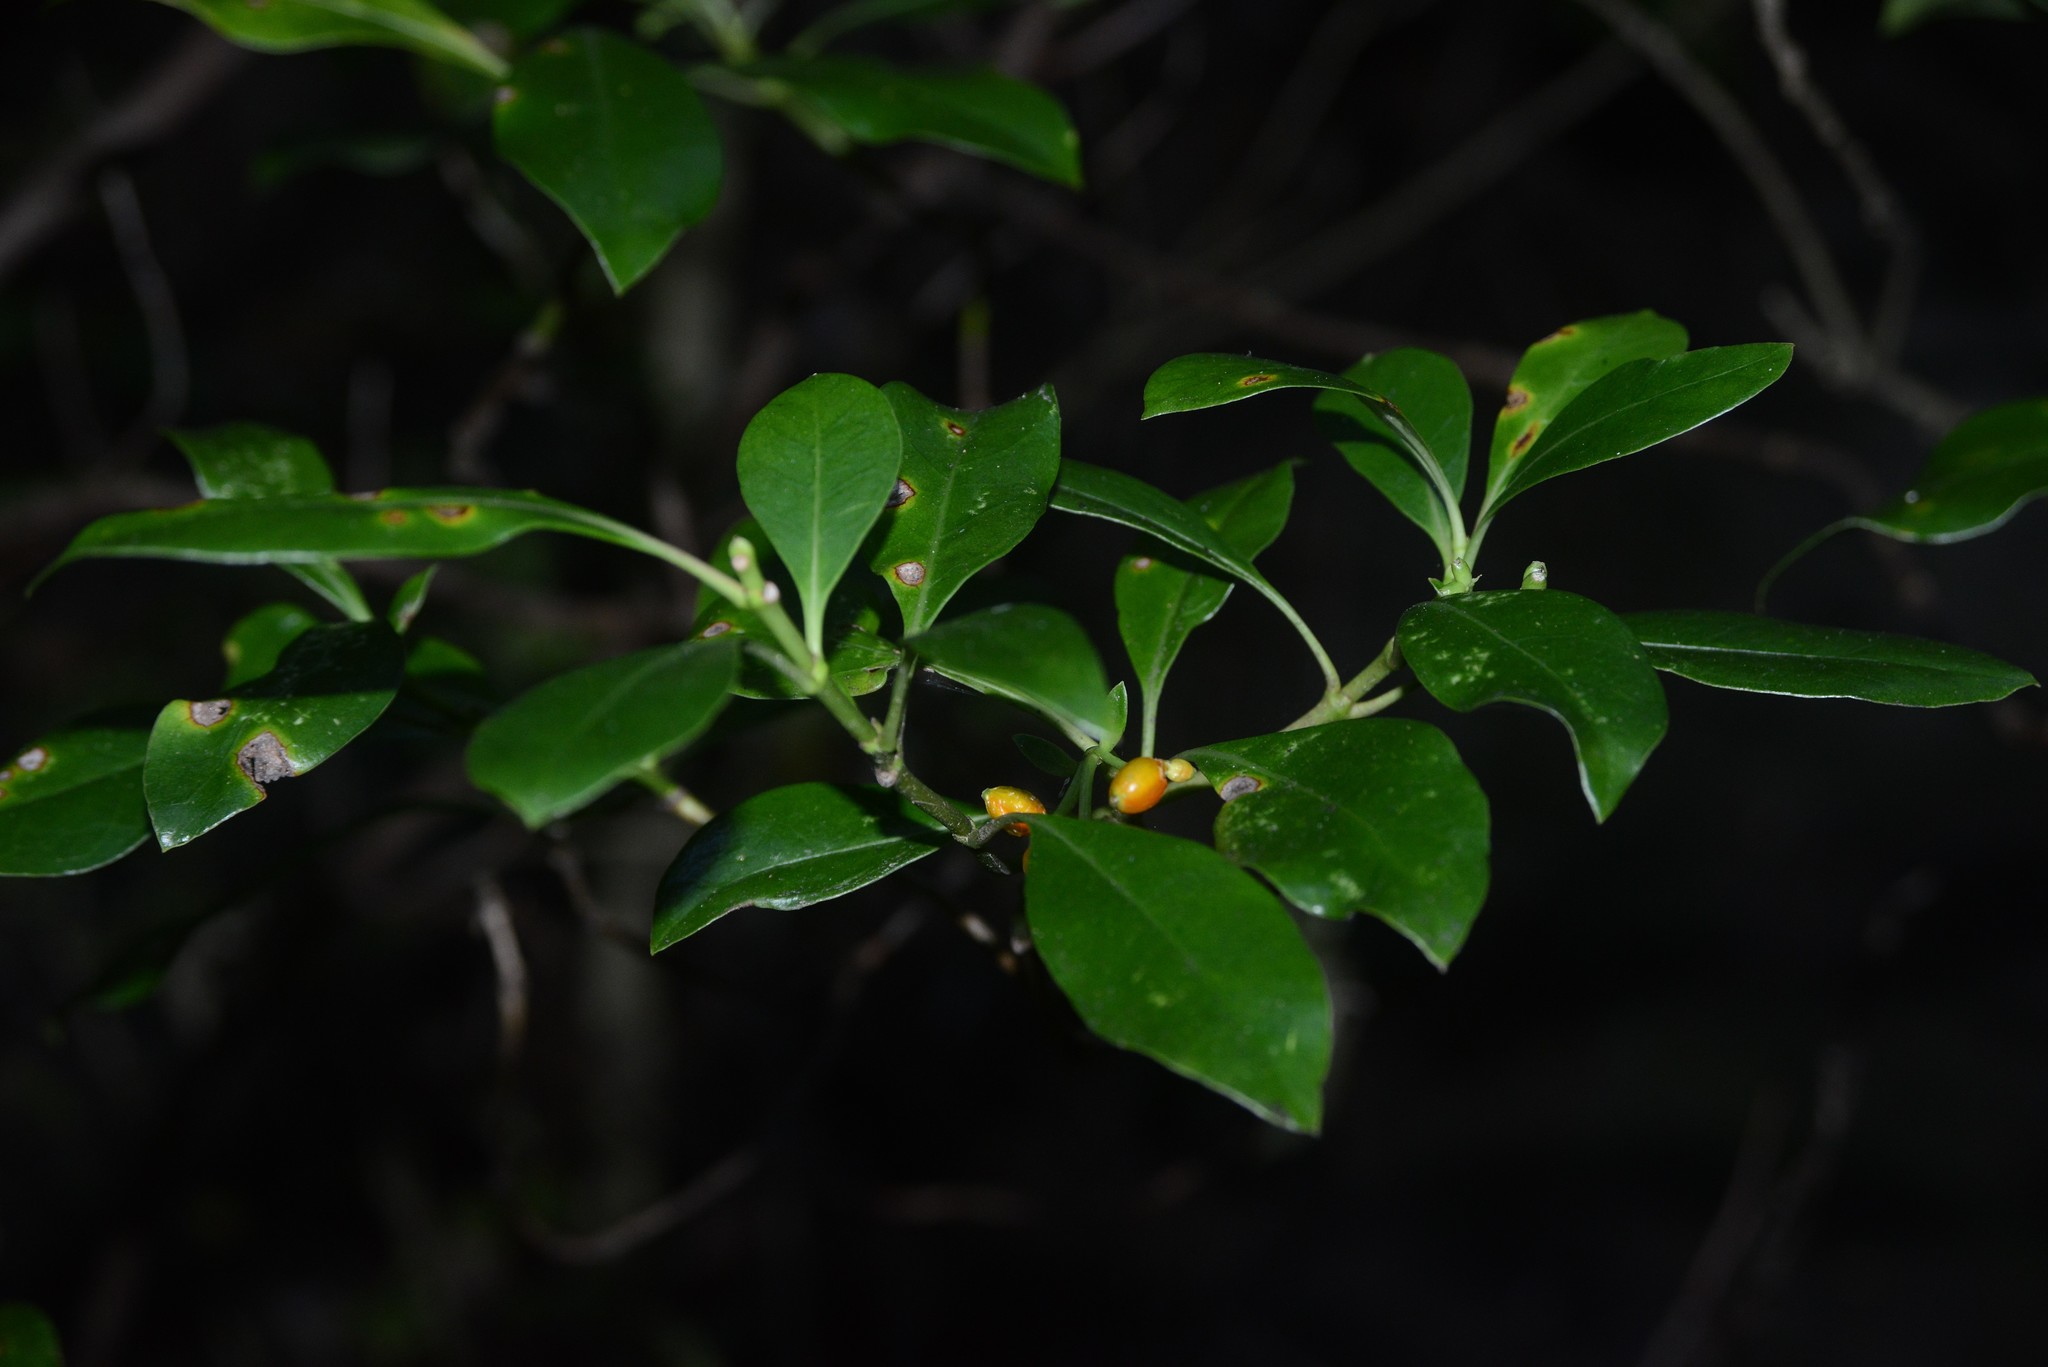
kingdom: Plantae
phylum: Tracheophyta
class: Magnoliopsida
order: Gentianales
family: Rubiaceae
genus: Coprosma
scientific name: Coprosma lucida
